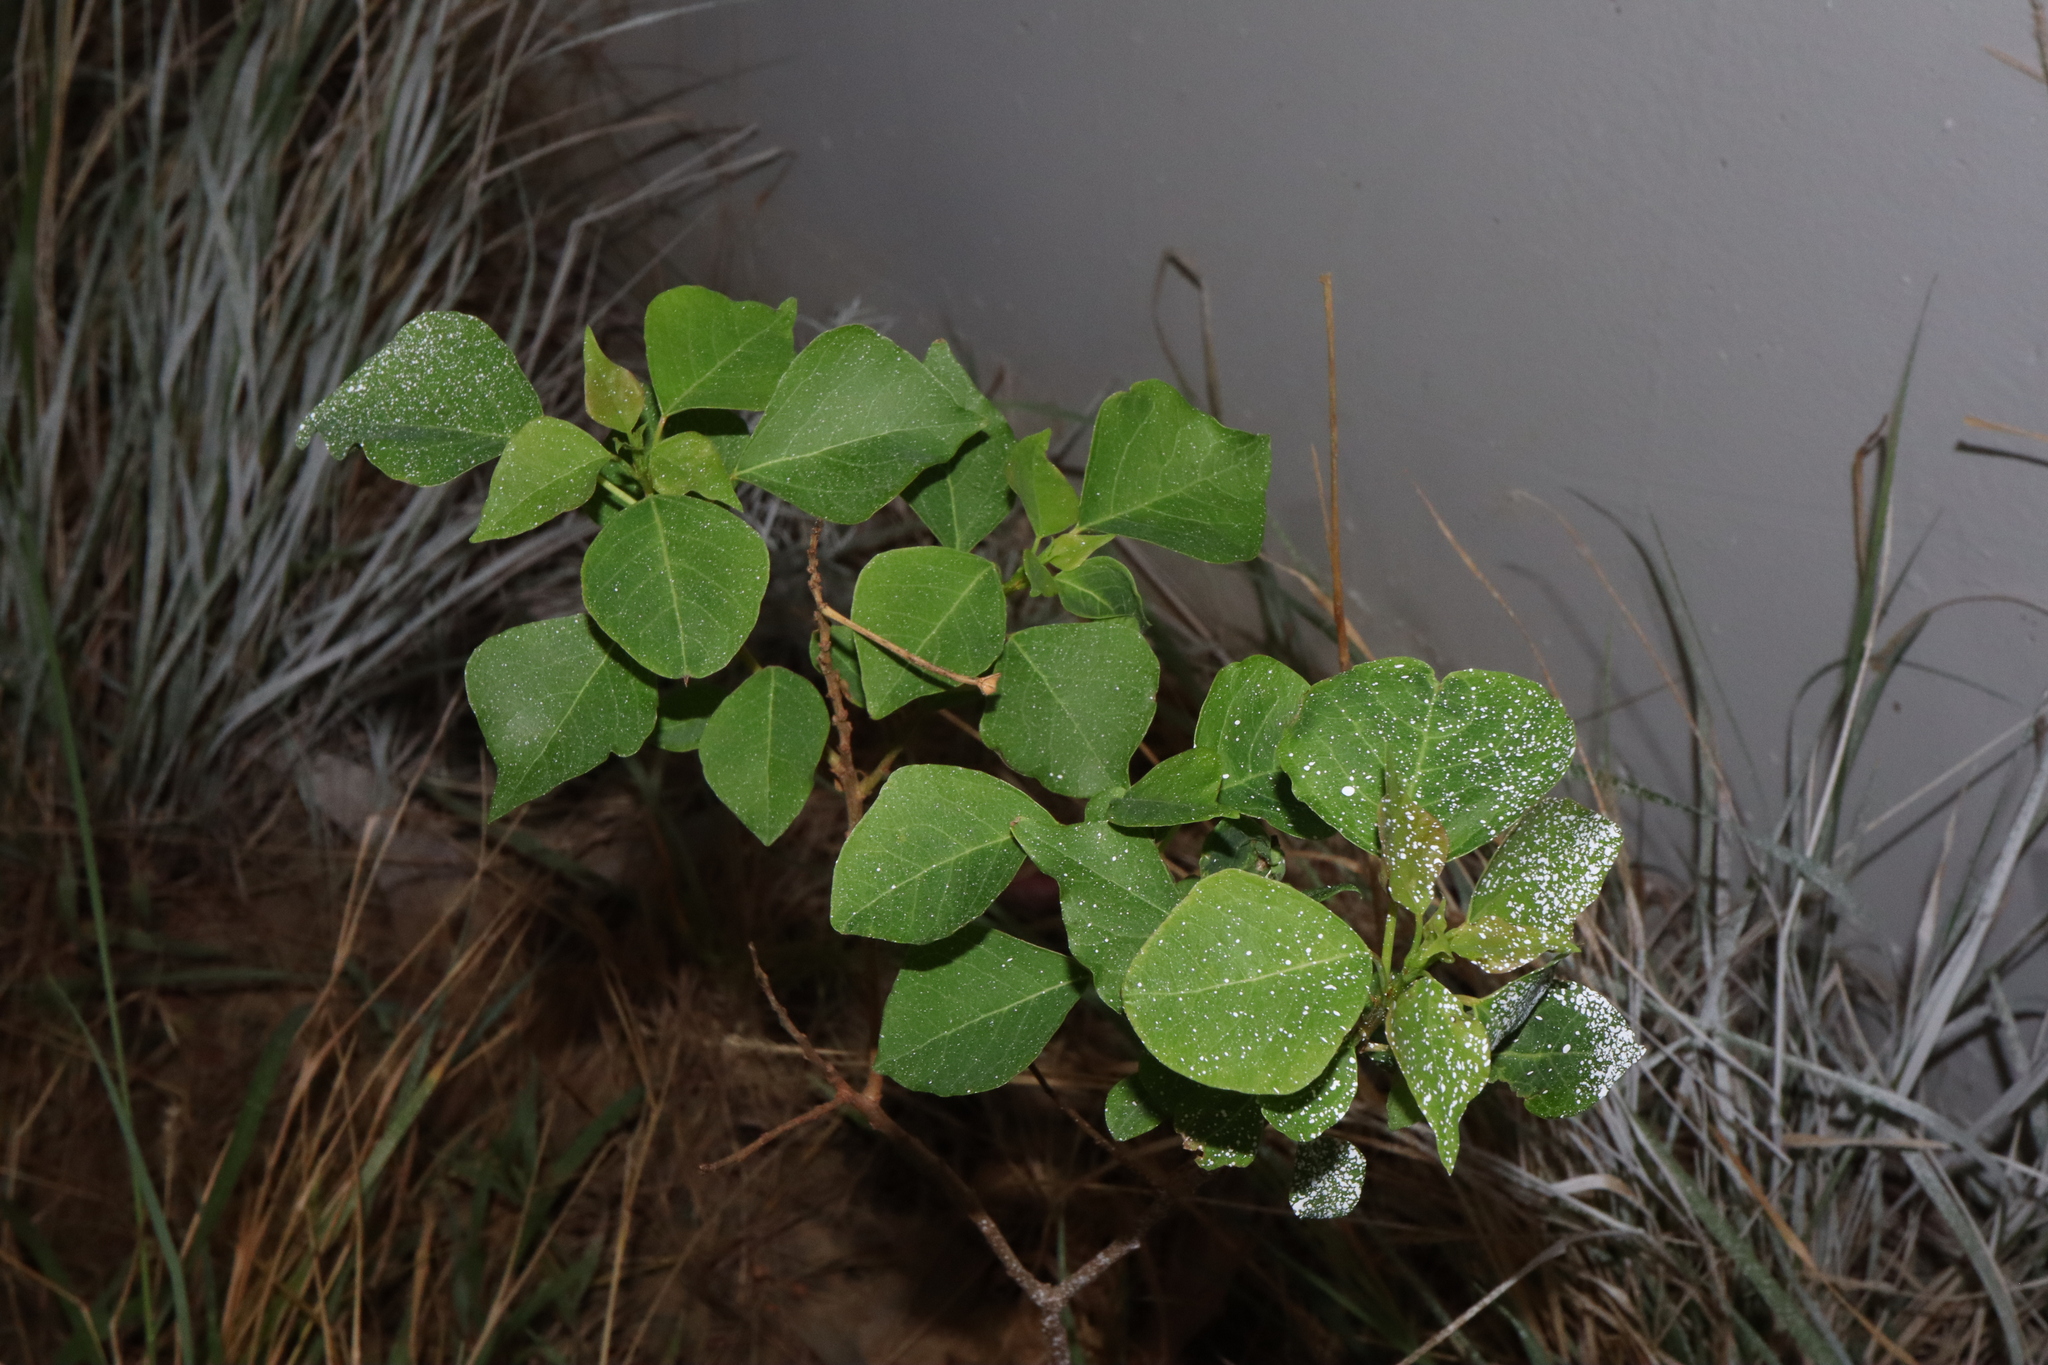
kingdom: Plantae
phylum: Tracheophyta
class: Magnoliopsida
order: Malpighiales
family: Euphorbiaceae
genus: Triadica
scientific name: Triadica sebifera
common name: Chinese tallow
